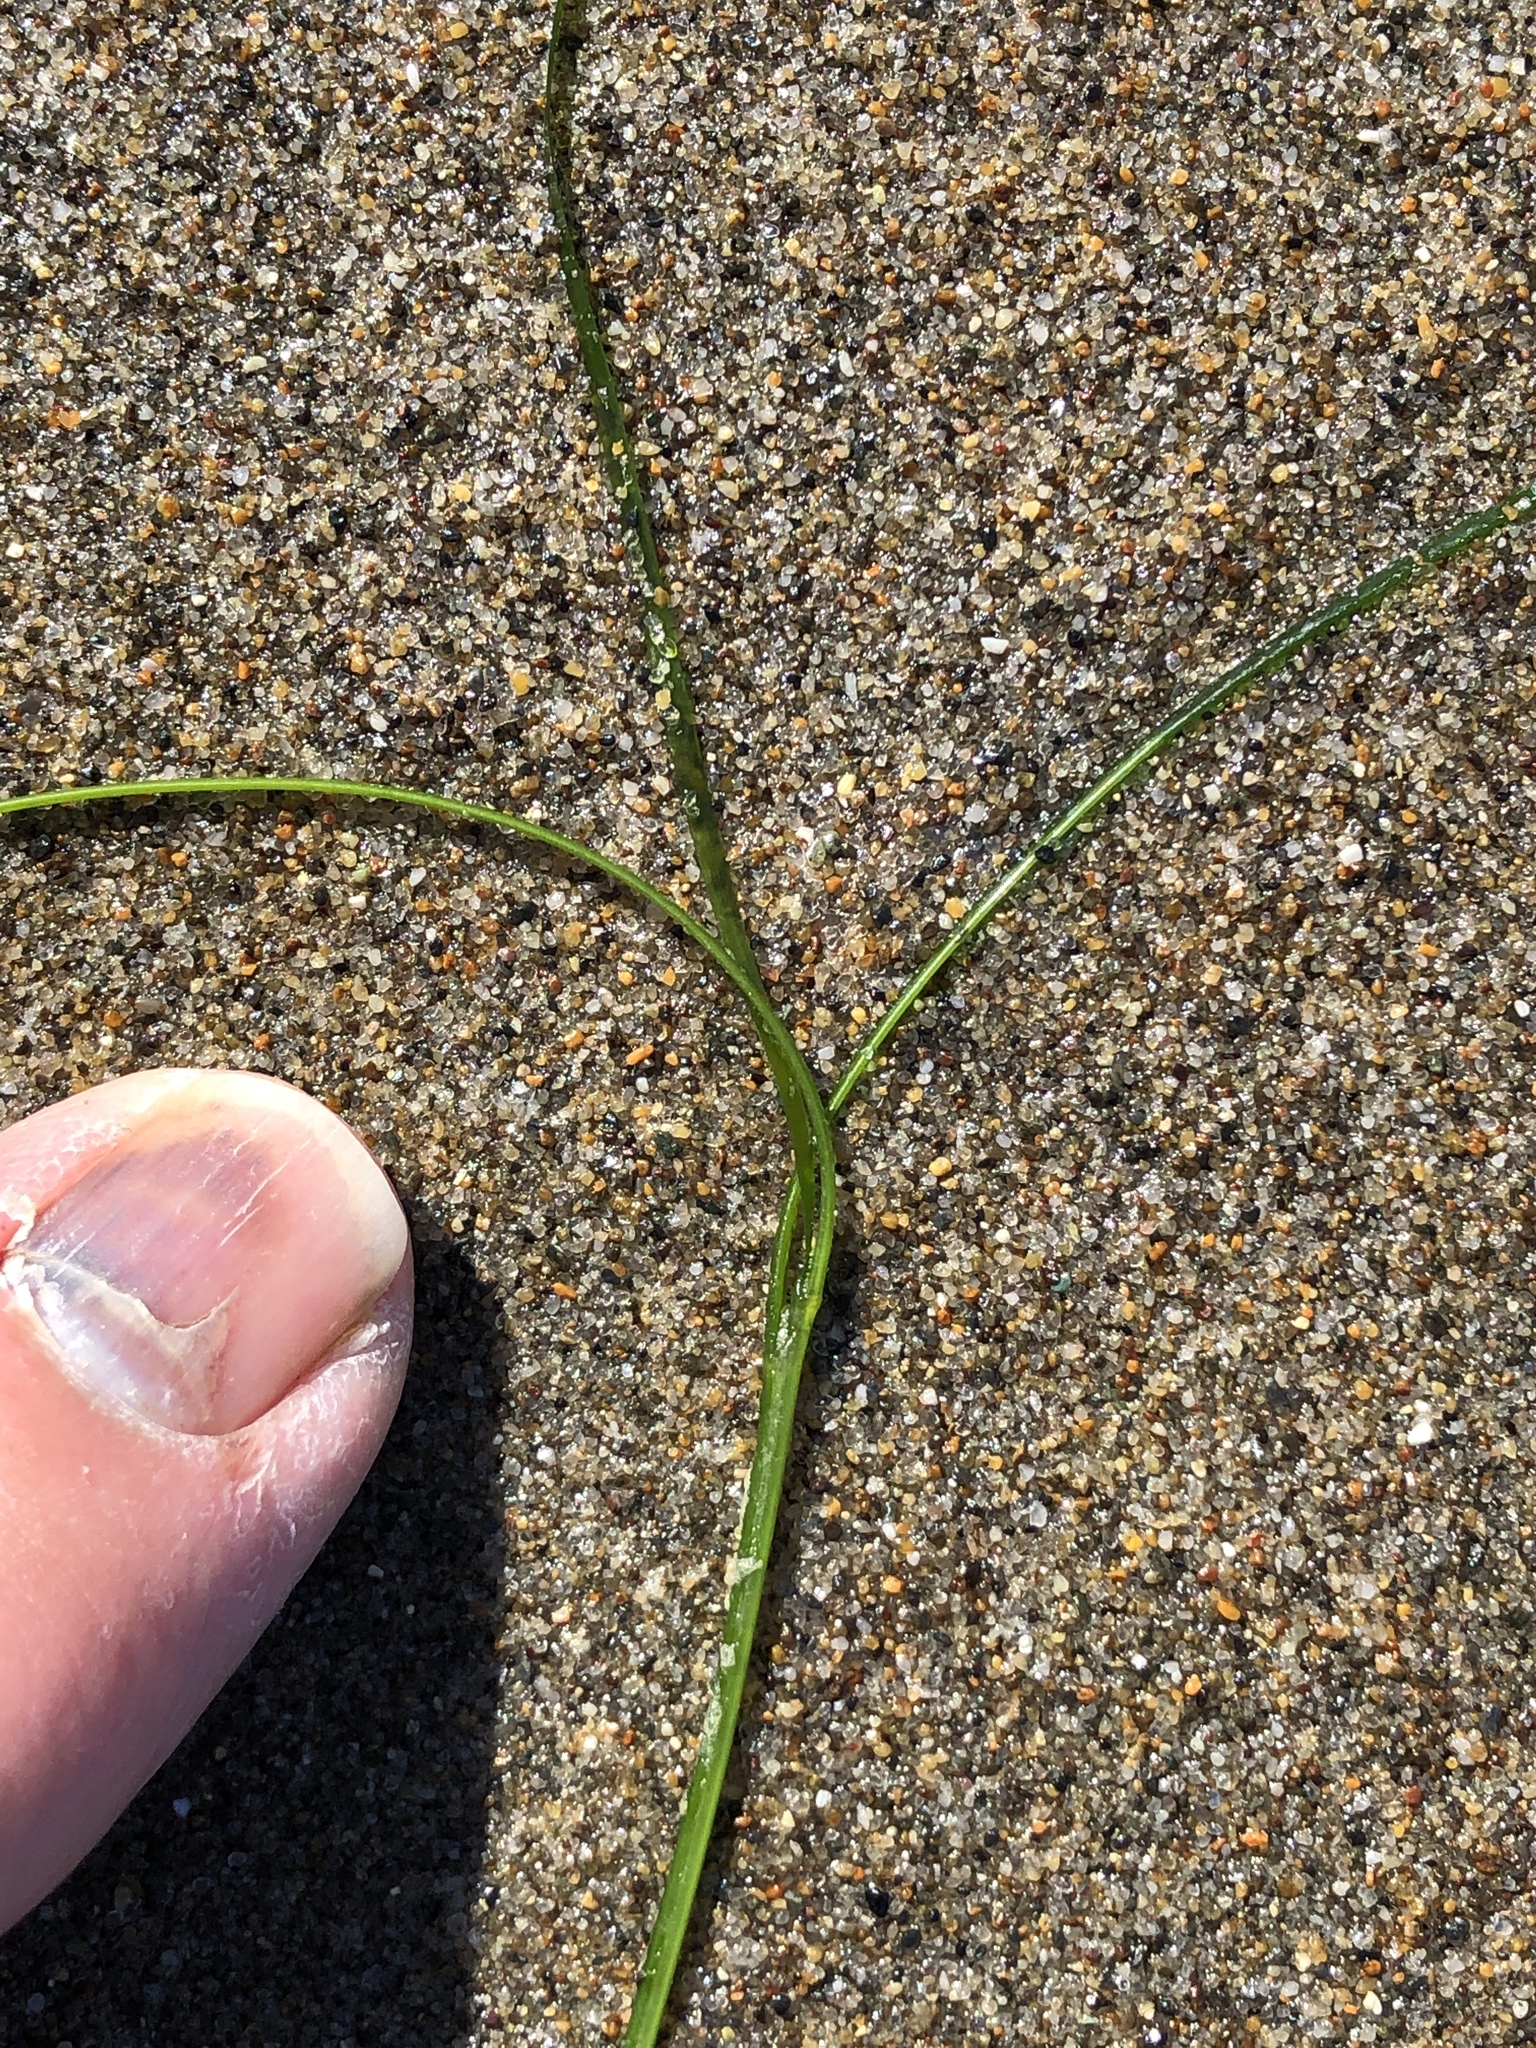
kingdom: Plantae
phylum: Tracheophyta
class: Liliopsida
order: Alismatales
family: Zosteraceae
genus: Phyllospadix
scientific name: Phyllospadix torreyi
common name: Surfgrass
